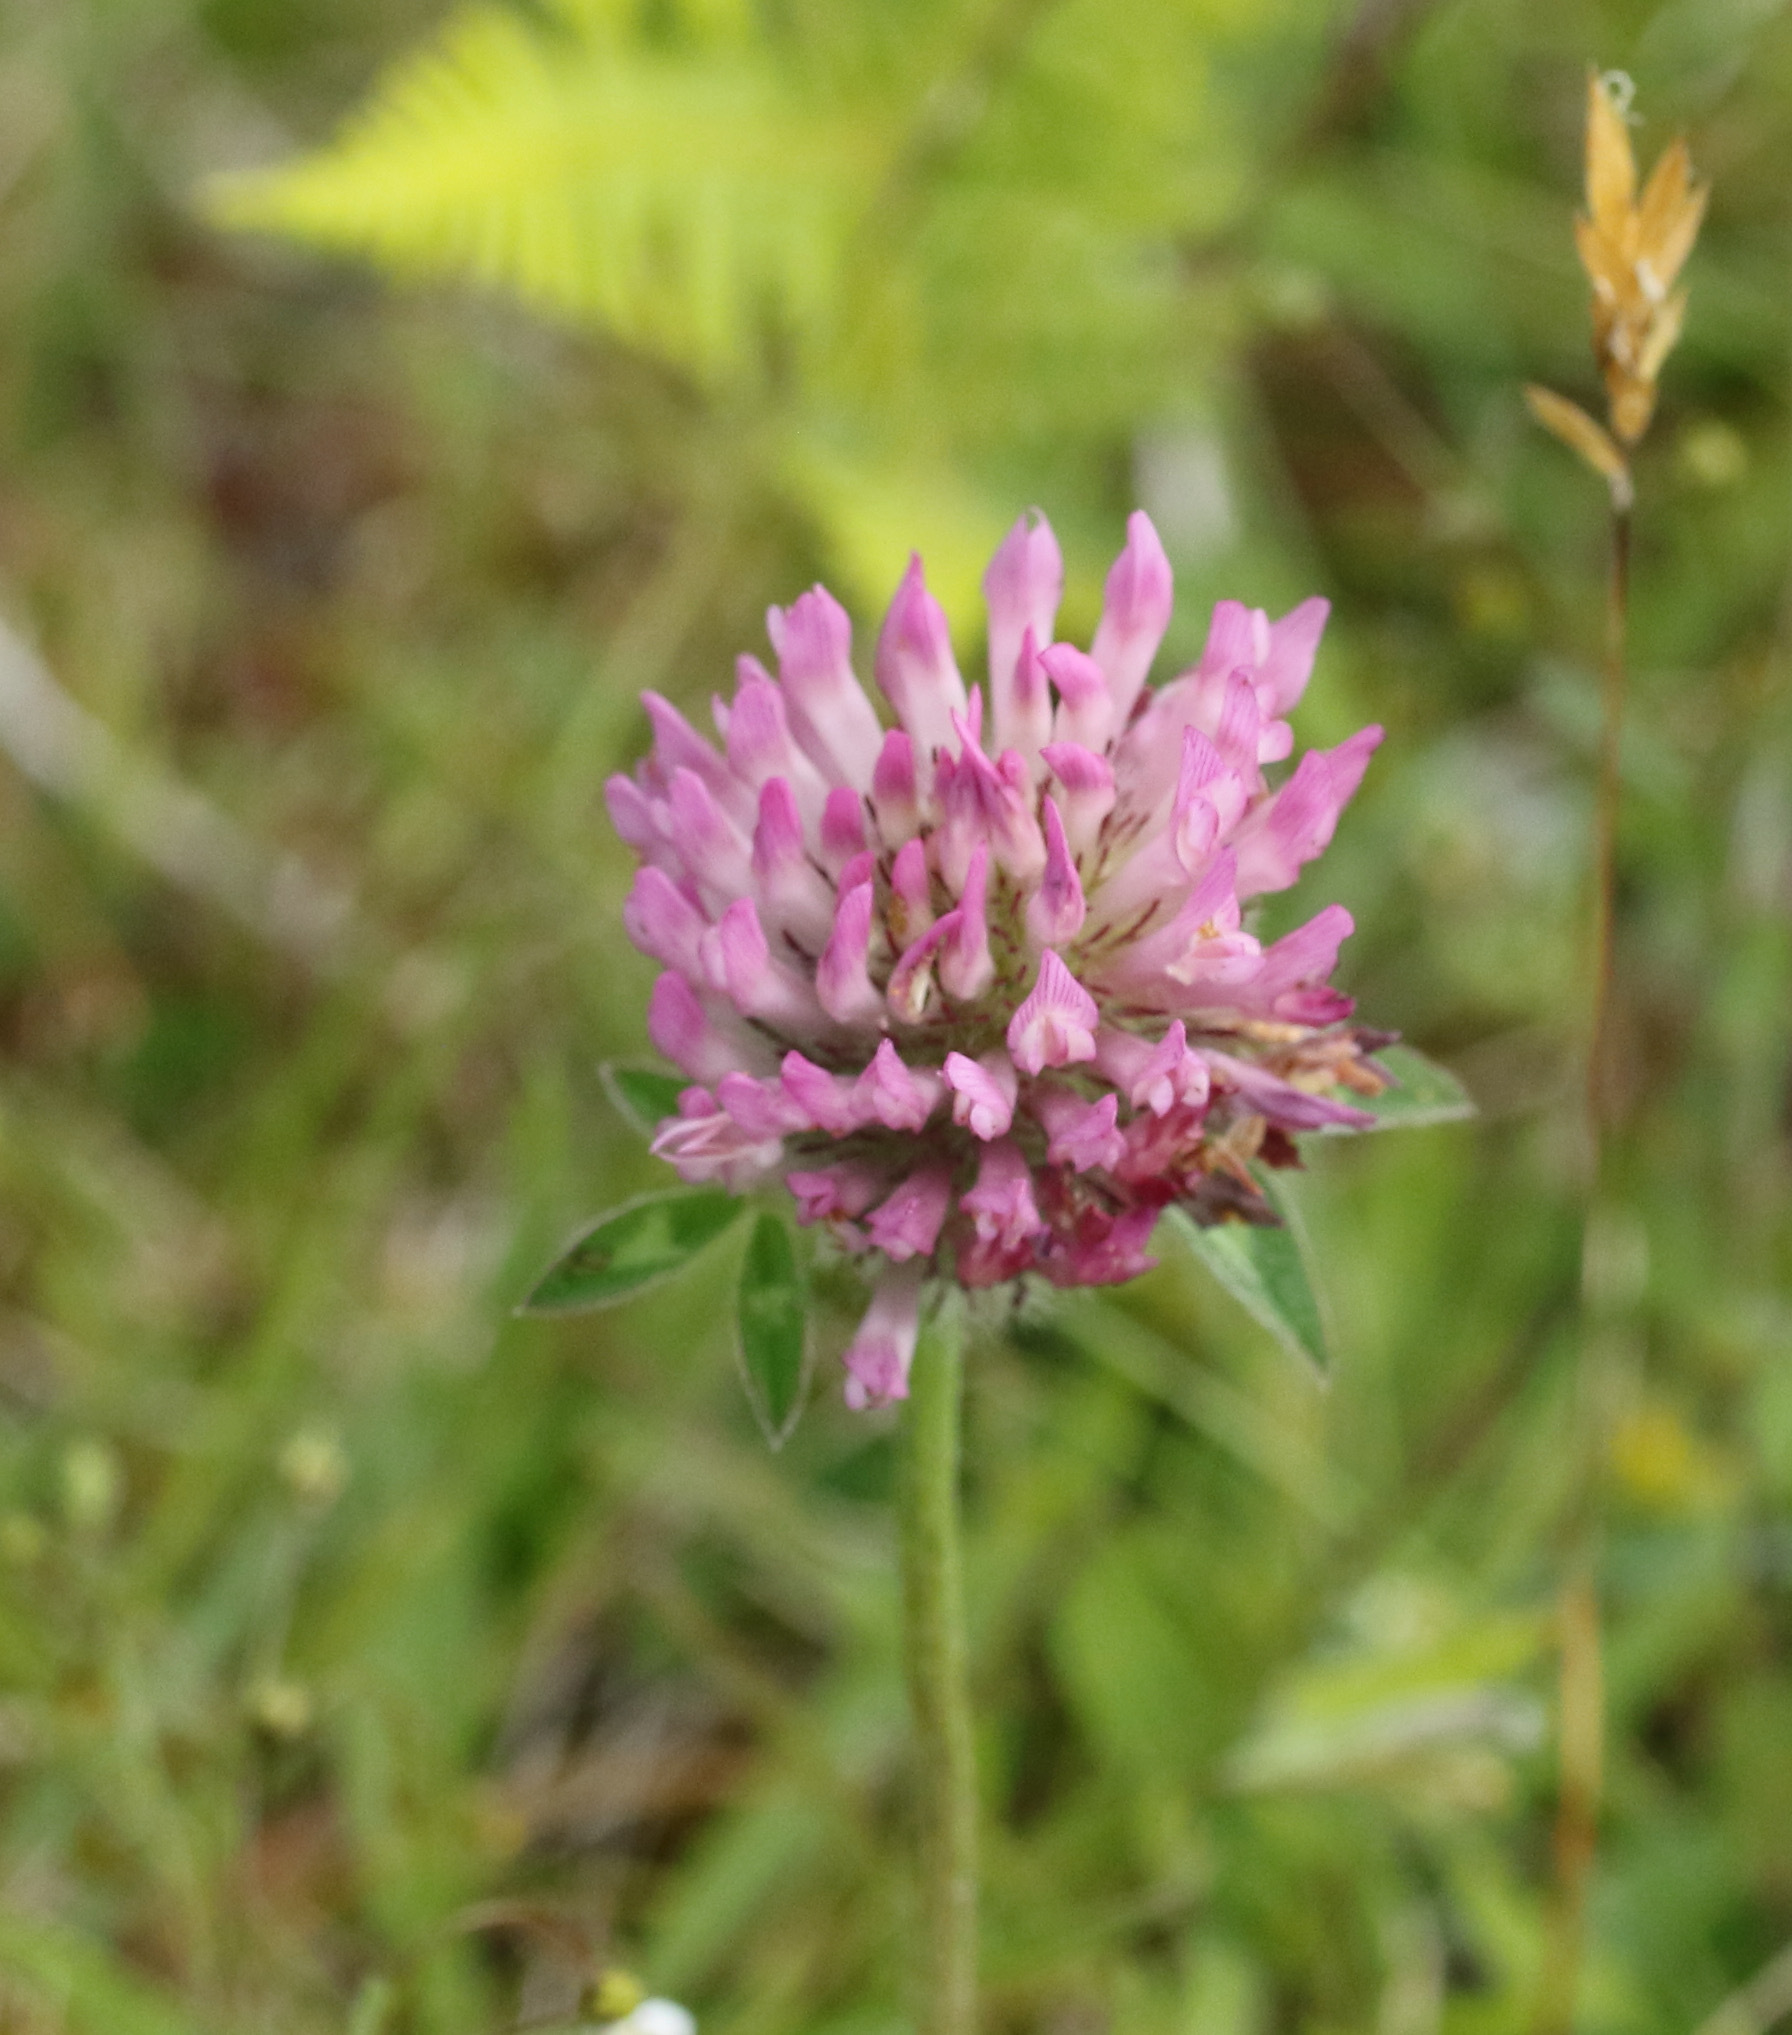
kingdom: Plantae
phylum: Tracheophyta
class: Magnoliopsida
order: Fabales
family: Fabaceae
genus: Trifolium
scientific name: Trifolium pratense
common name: Red clover
